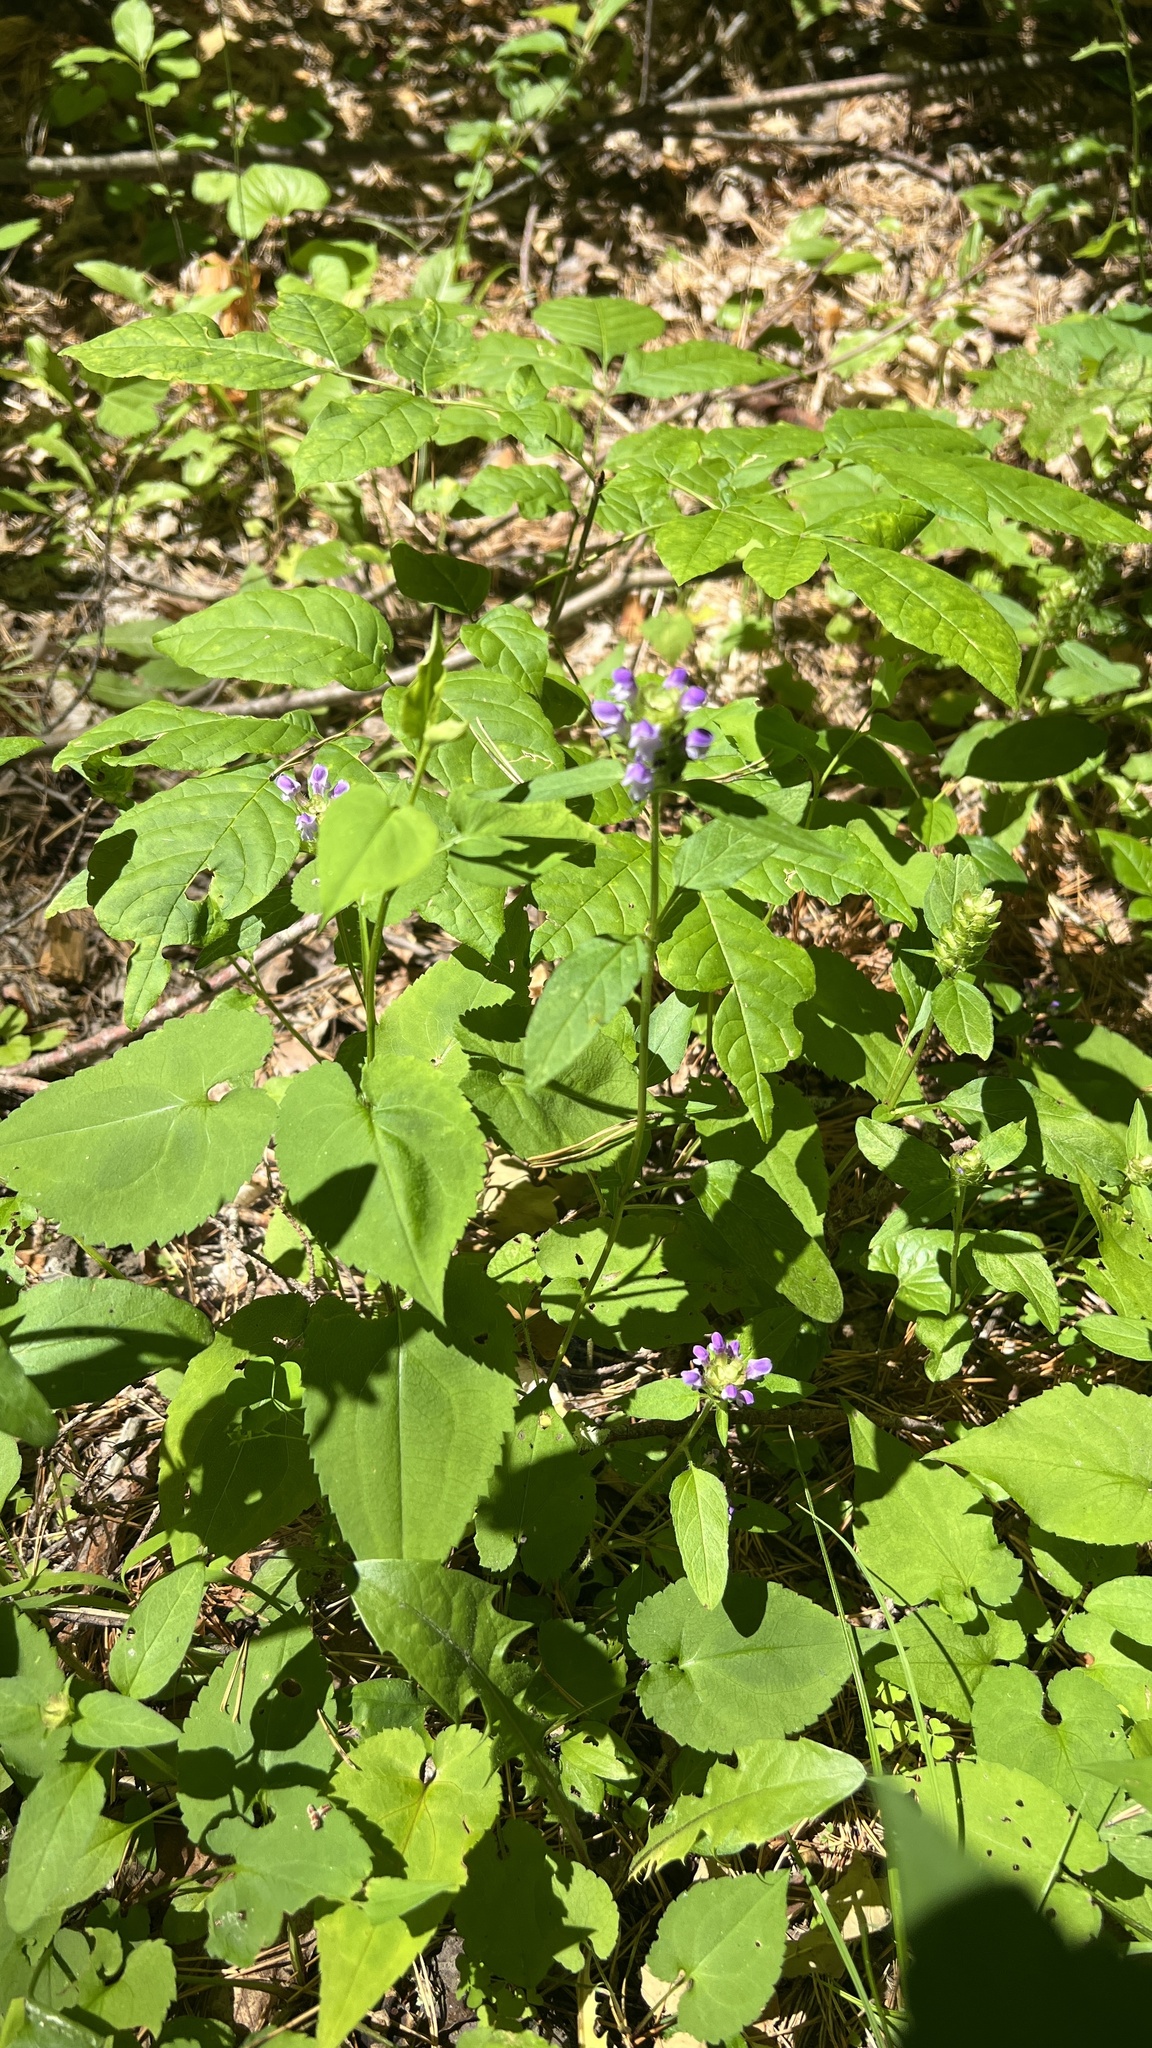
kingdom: Plantae
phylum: Tracheophyta
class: Magnoliopsida
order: Lamiales
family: Lamiaceae
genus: Prunella
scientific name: Prunella vulgaris
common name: Heal-all
